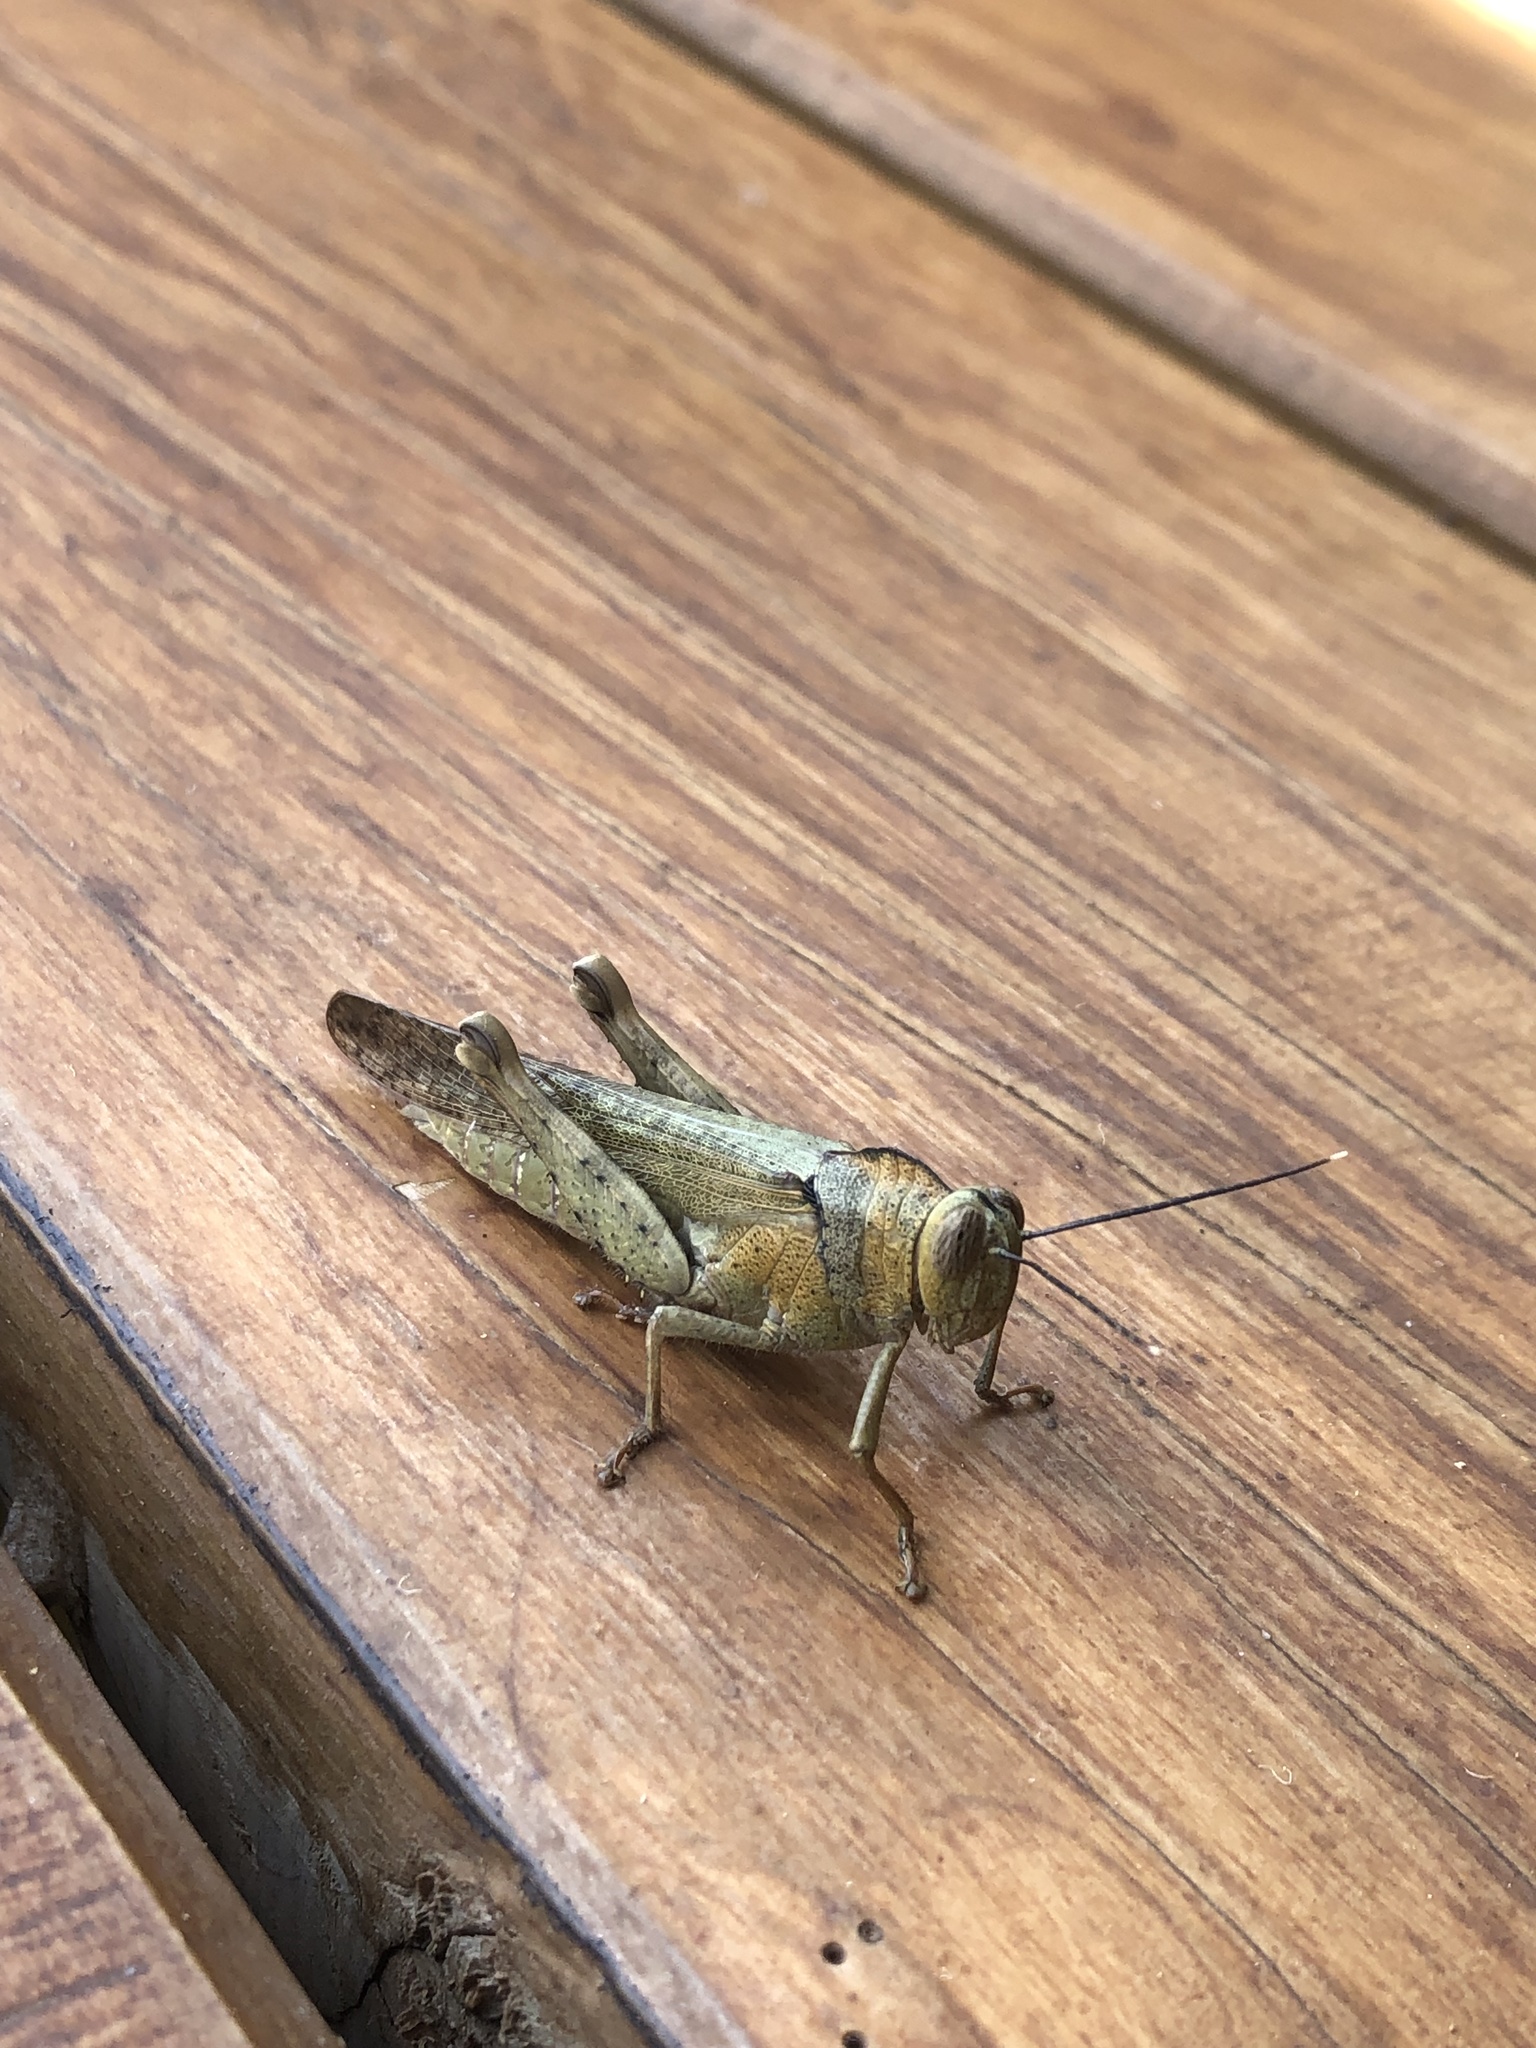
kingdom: Animalia
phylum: Arthropoda
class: Insecta
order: Orthoptera
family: Acrididae
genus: Abisares
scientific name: Abisares viridipenne
